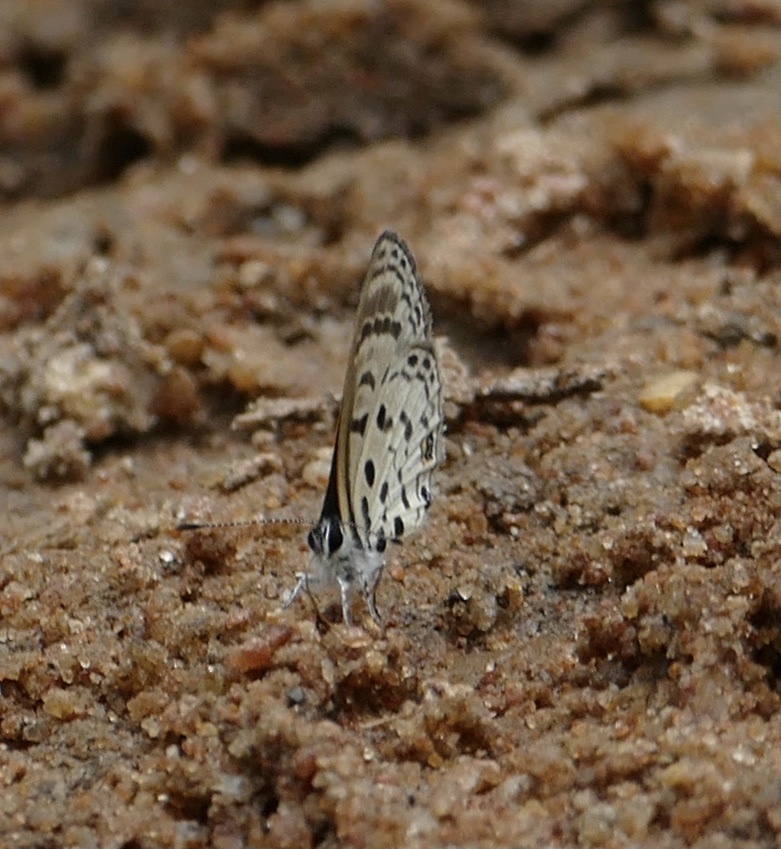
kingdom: Animalia
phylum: Arthropoda
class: Insecta
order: Lepidoptera
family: Lycaenidae
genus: Azanus
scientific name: Azanus mirza
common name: Mirza babul blue
